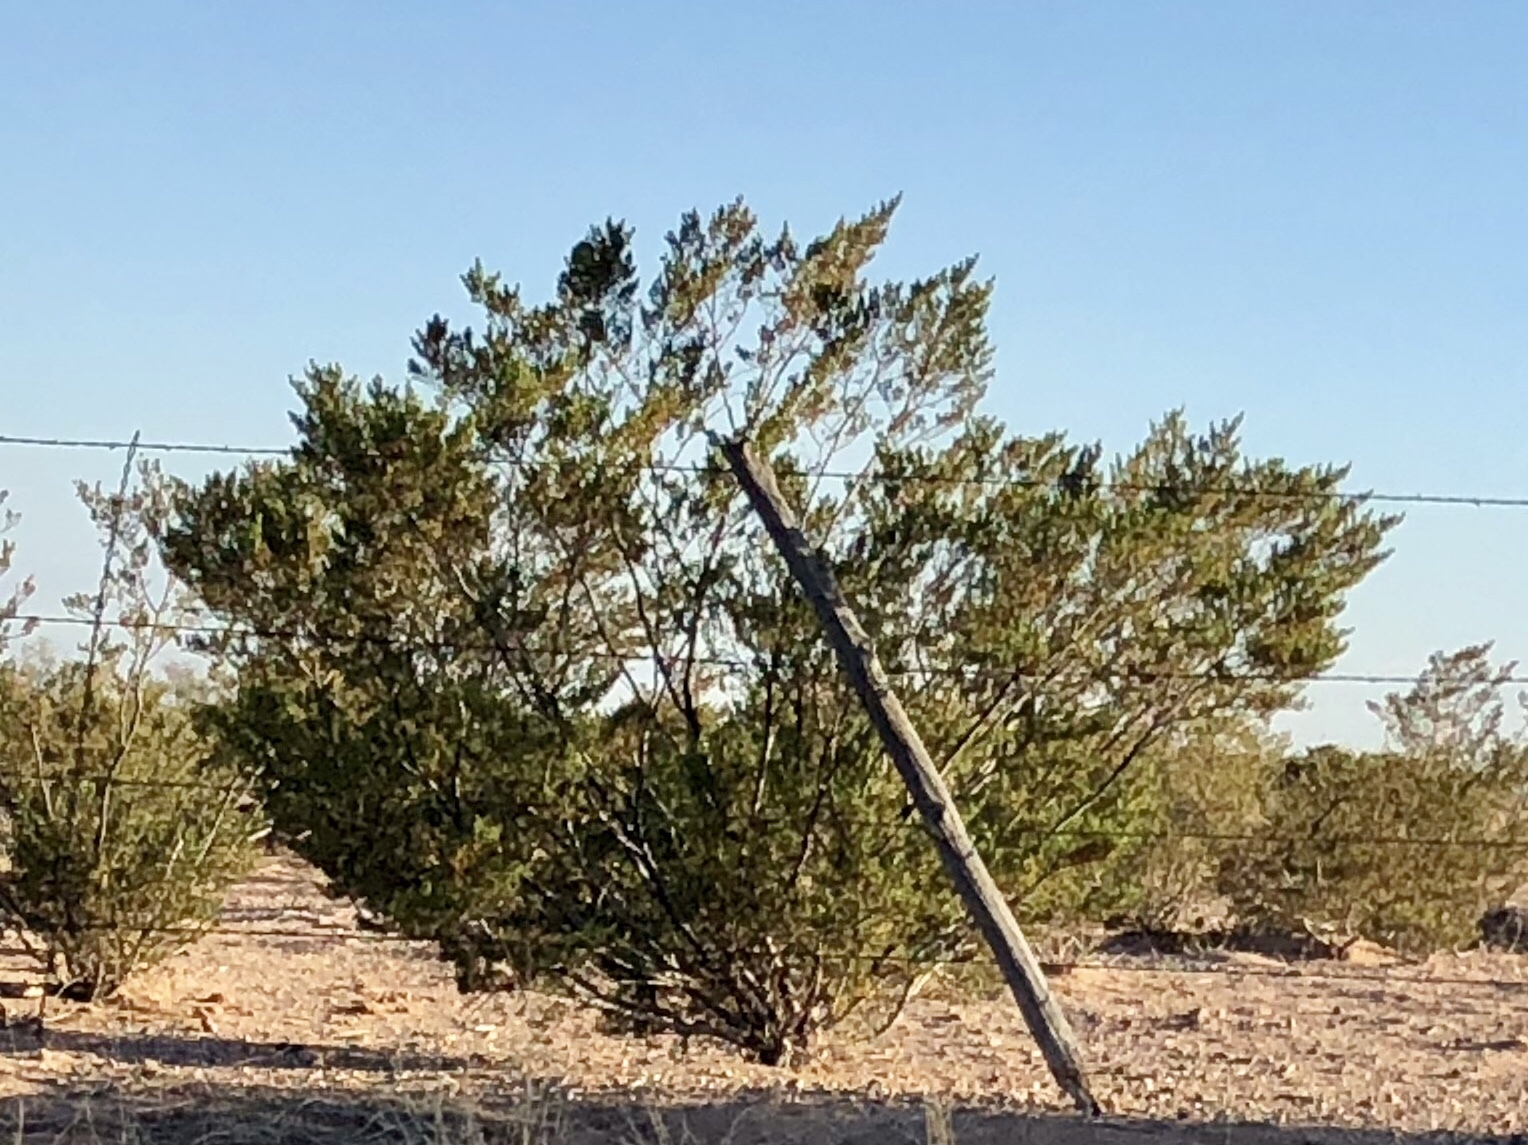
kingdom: Plantae
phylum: Tracheophyta
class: Magnoliopsida
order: Zygophyllales
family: Zygophyllaceae
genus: Larrea
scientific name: Larrea tridentata
